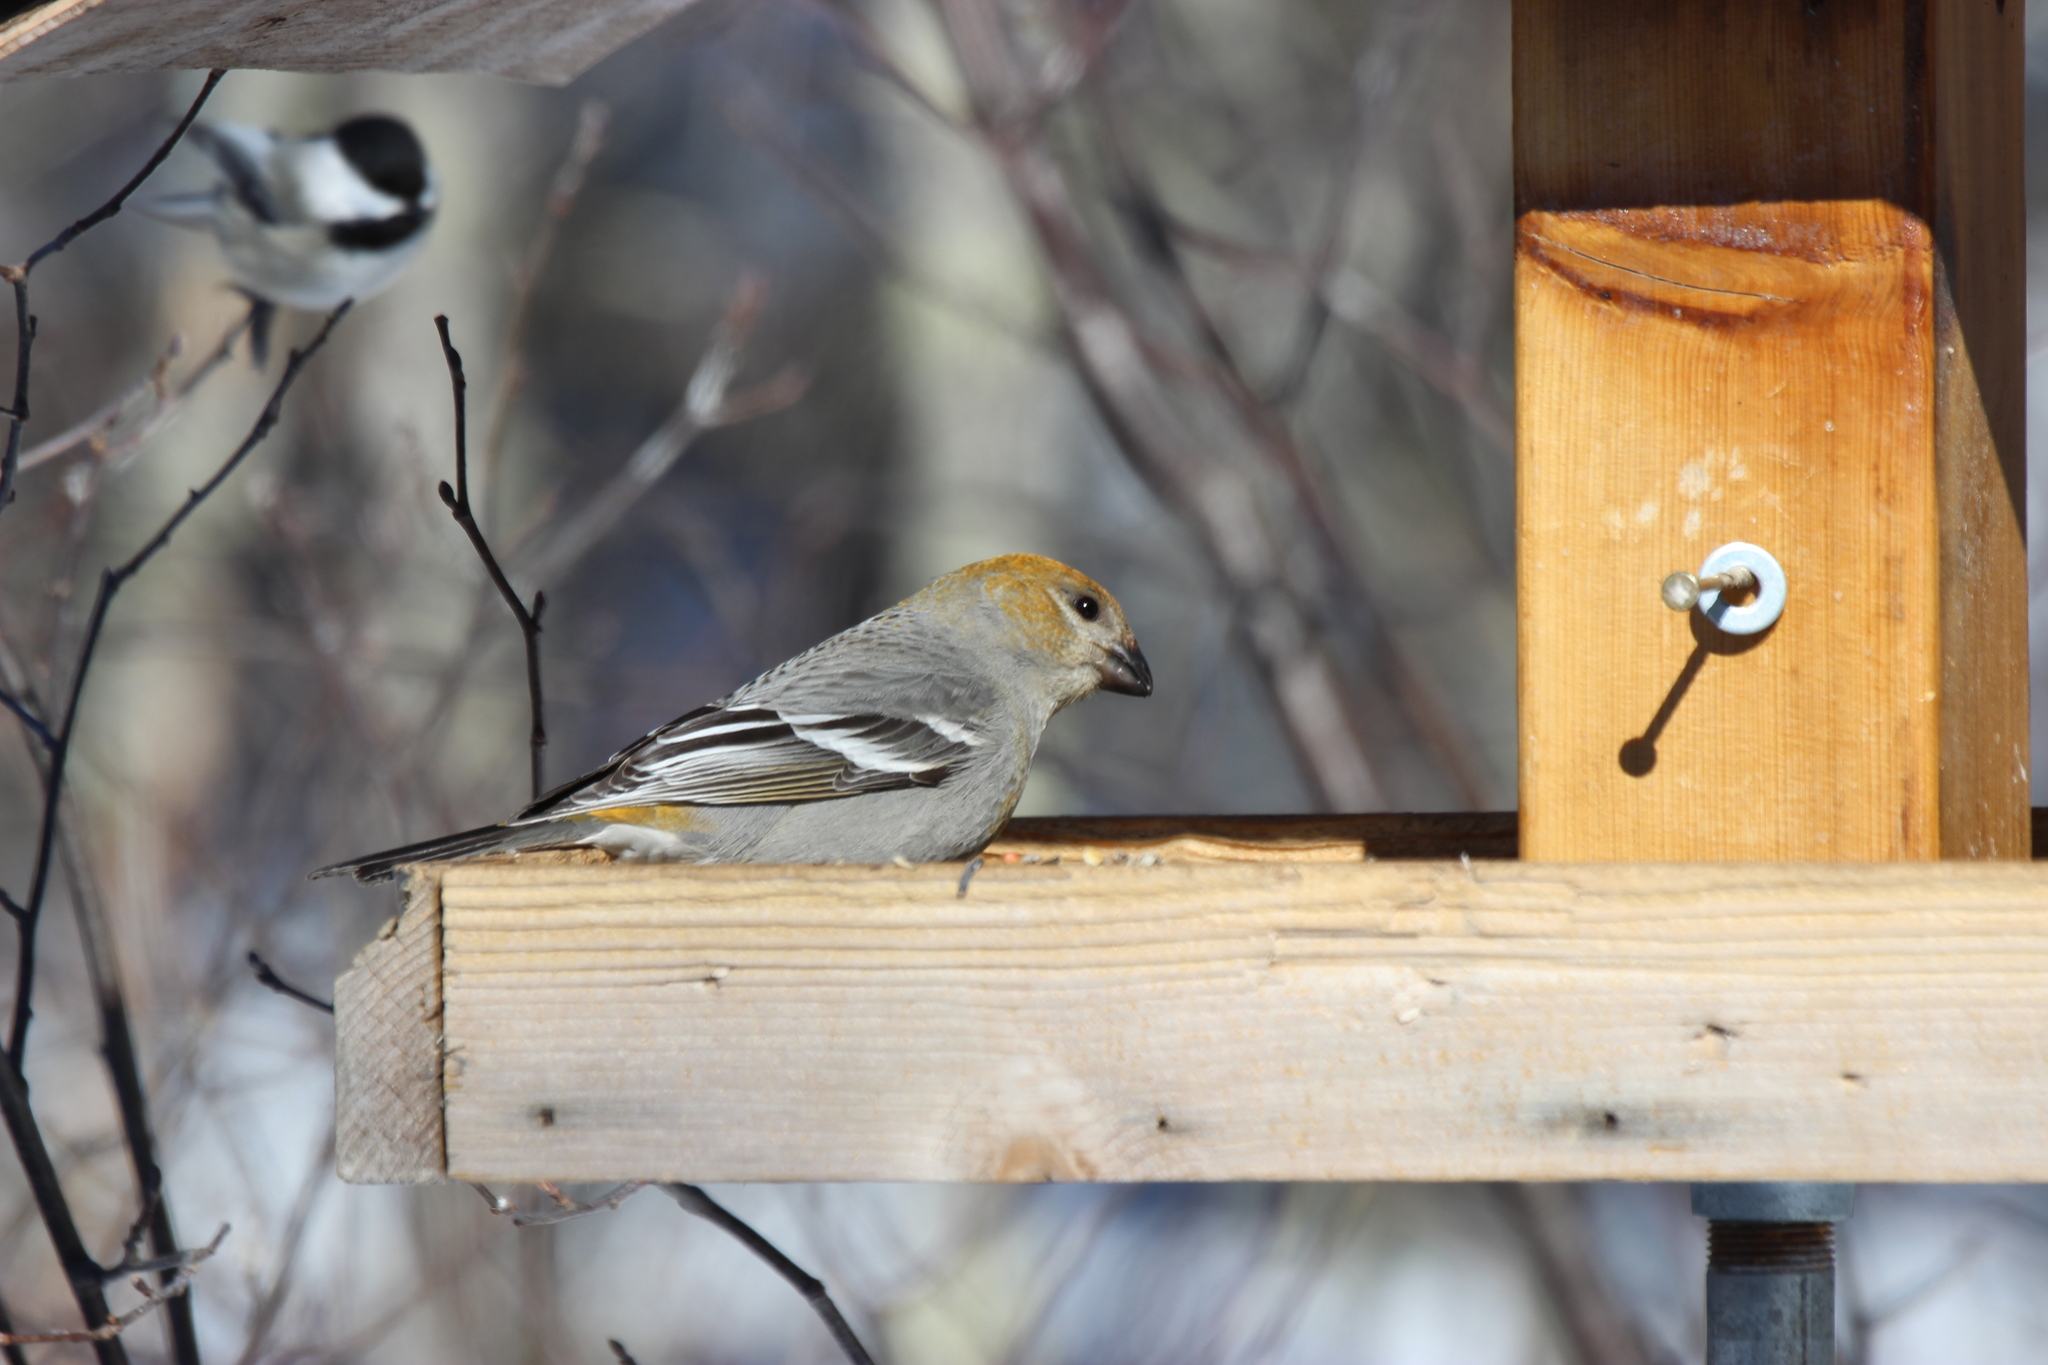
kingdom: Animalia
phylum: Chordata
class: Aves
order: Passeriformes
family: Fringillidae
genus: Pinicola
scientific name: Pinicola enucleator
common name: Pine grosbeak
